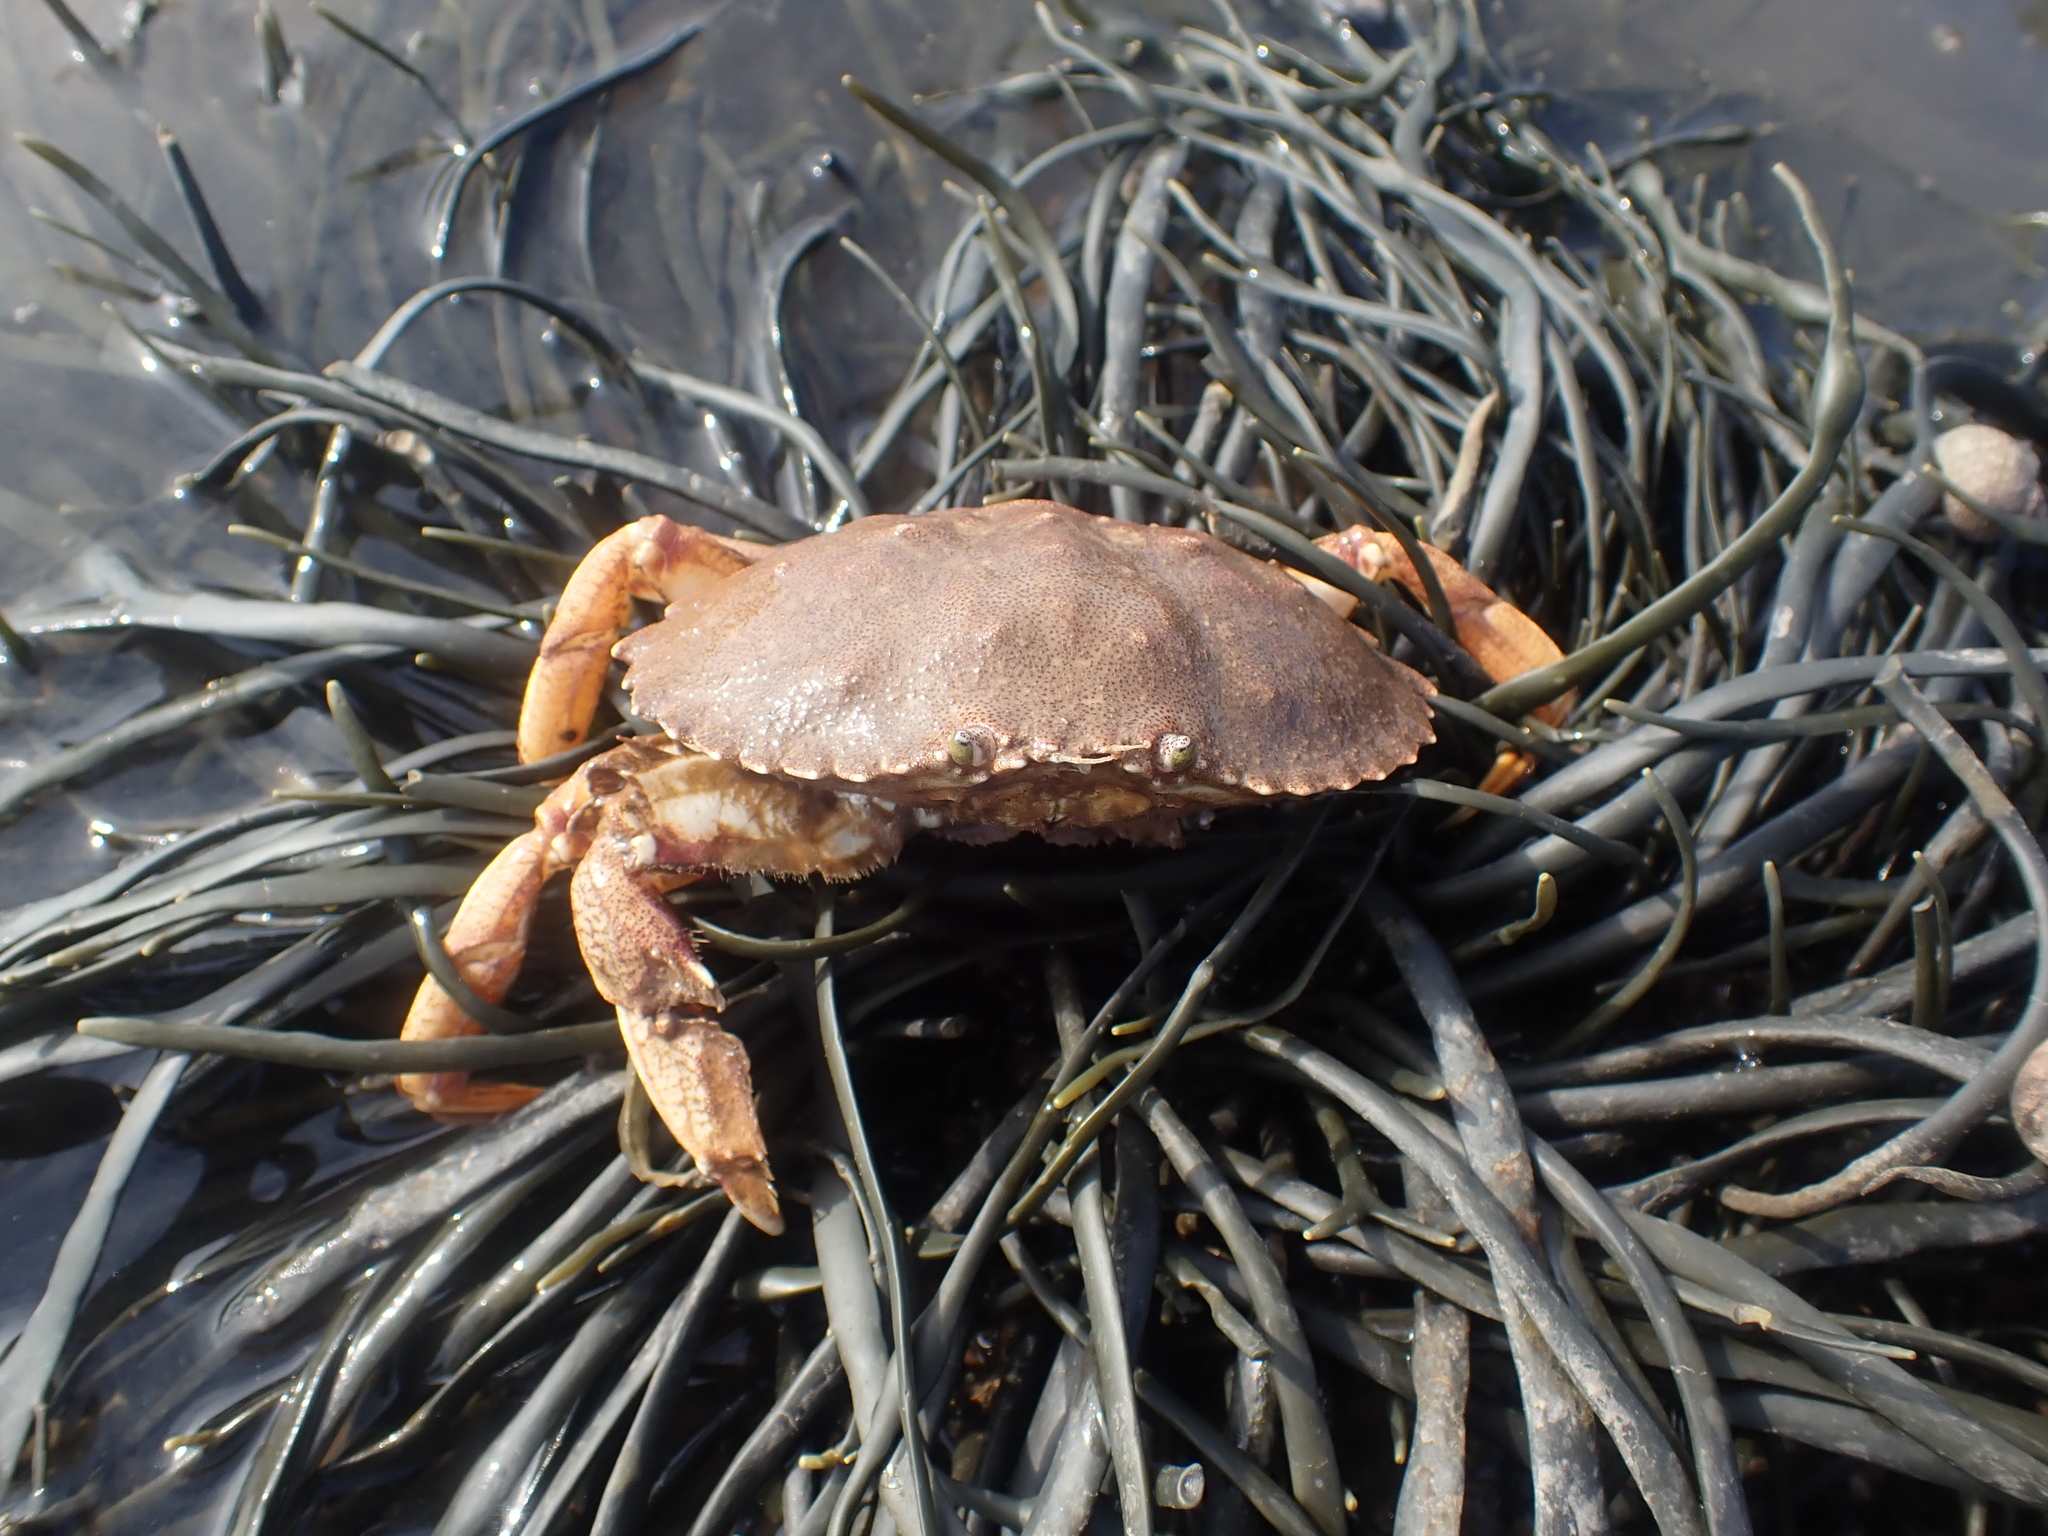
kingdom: Animalia
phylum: Arthropoda
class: Malacostraca
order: Decapoda
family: Cancridae
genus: Cancer
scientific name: Cancer irroratus
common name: Atlantic rock crab
